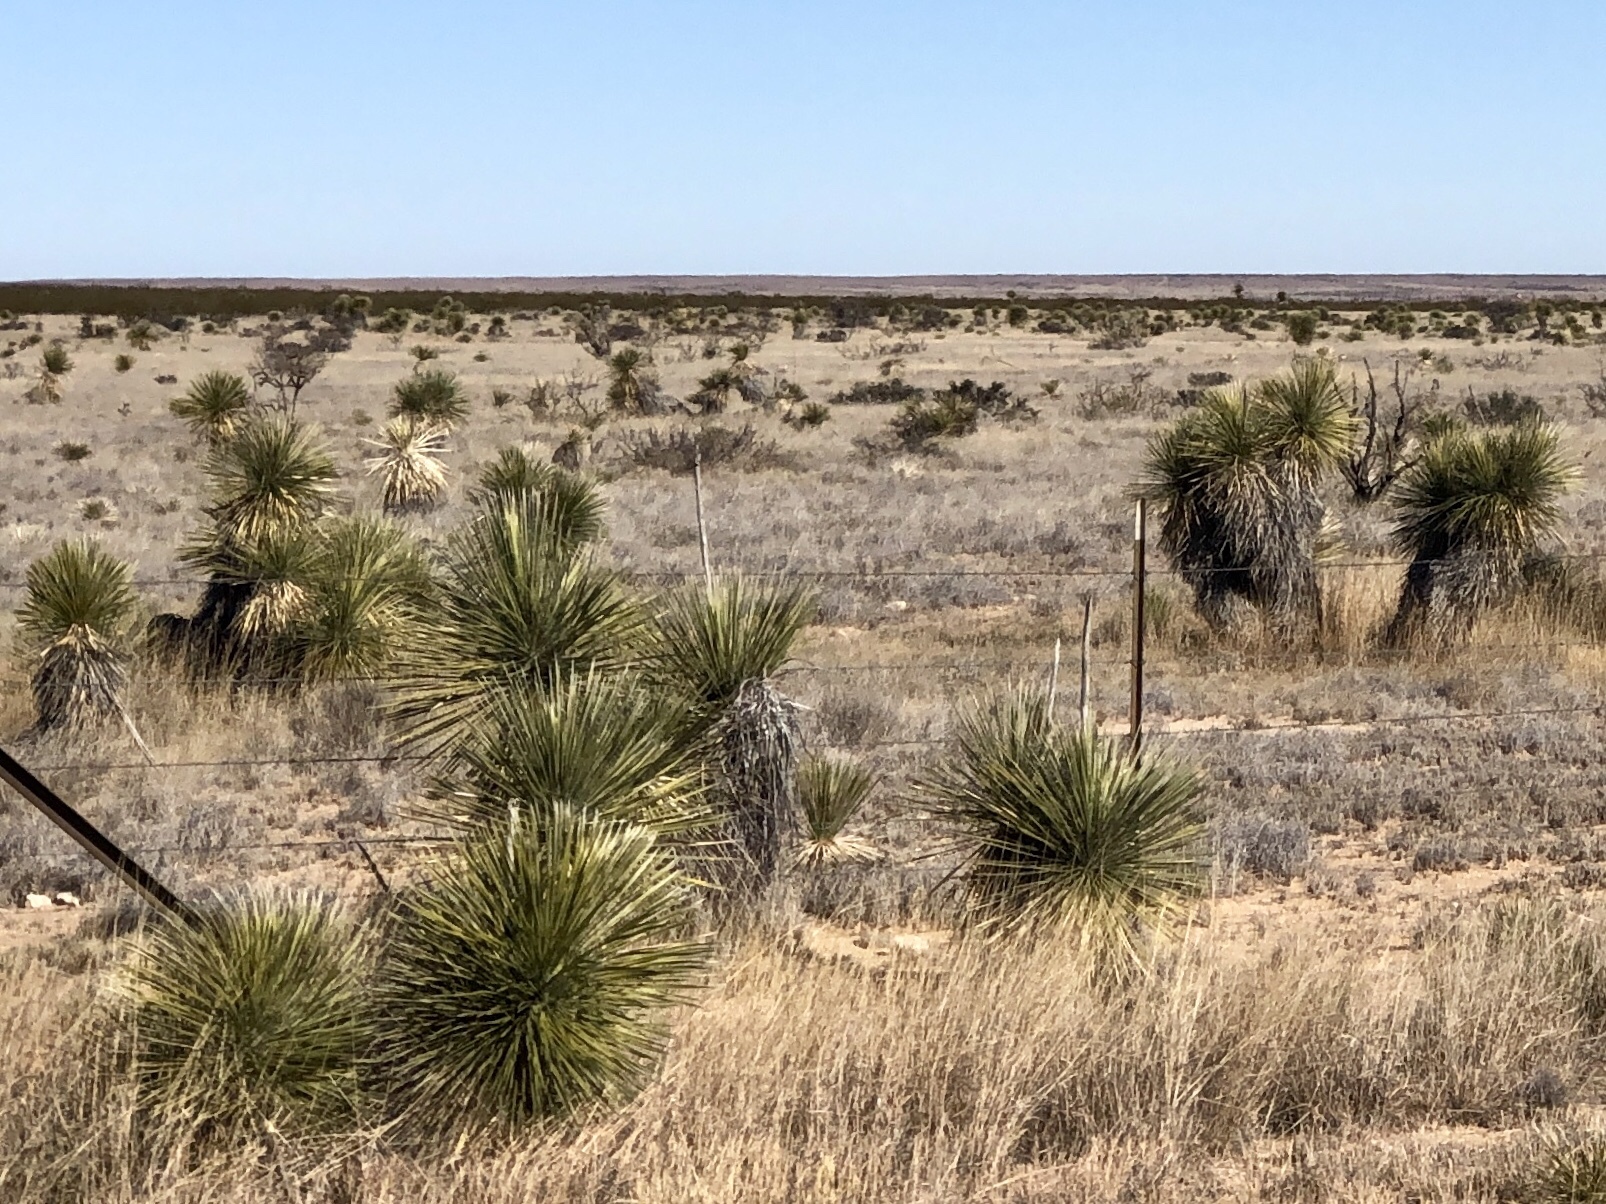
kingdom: Plantae
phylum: Tracheophyta
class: Liliopsida
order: Asparagales
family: Asparagaceae
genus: Yucca
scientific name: Yucca elata
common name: Palmella
